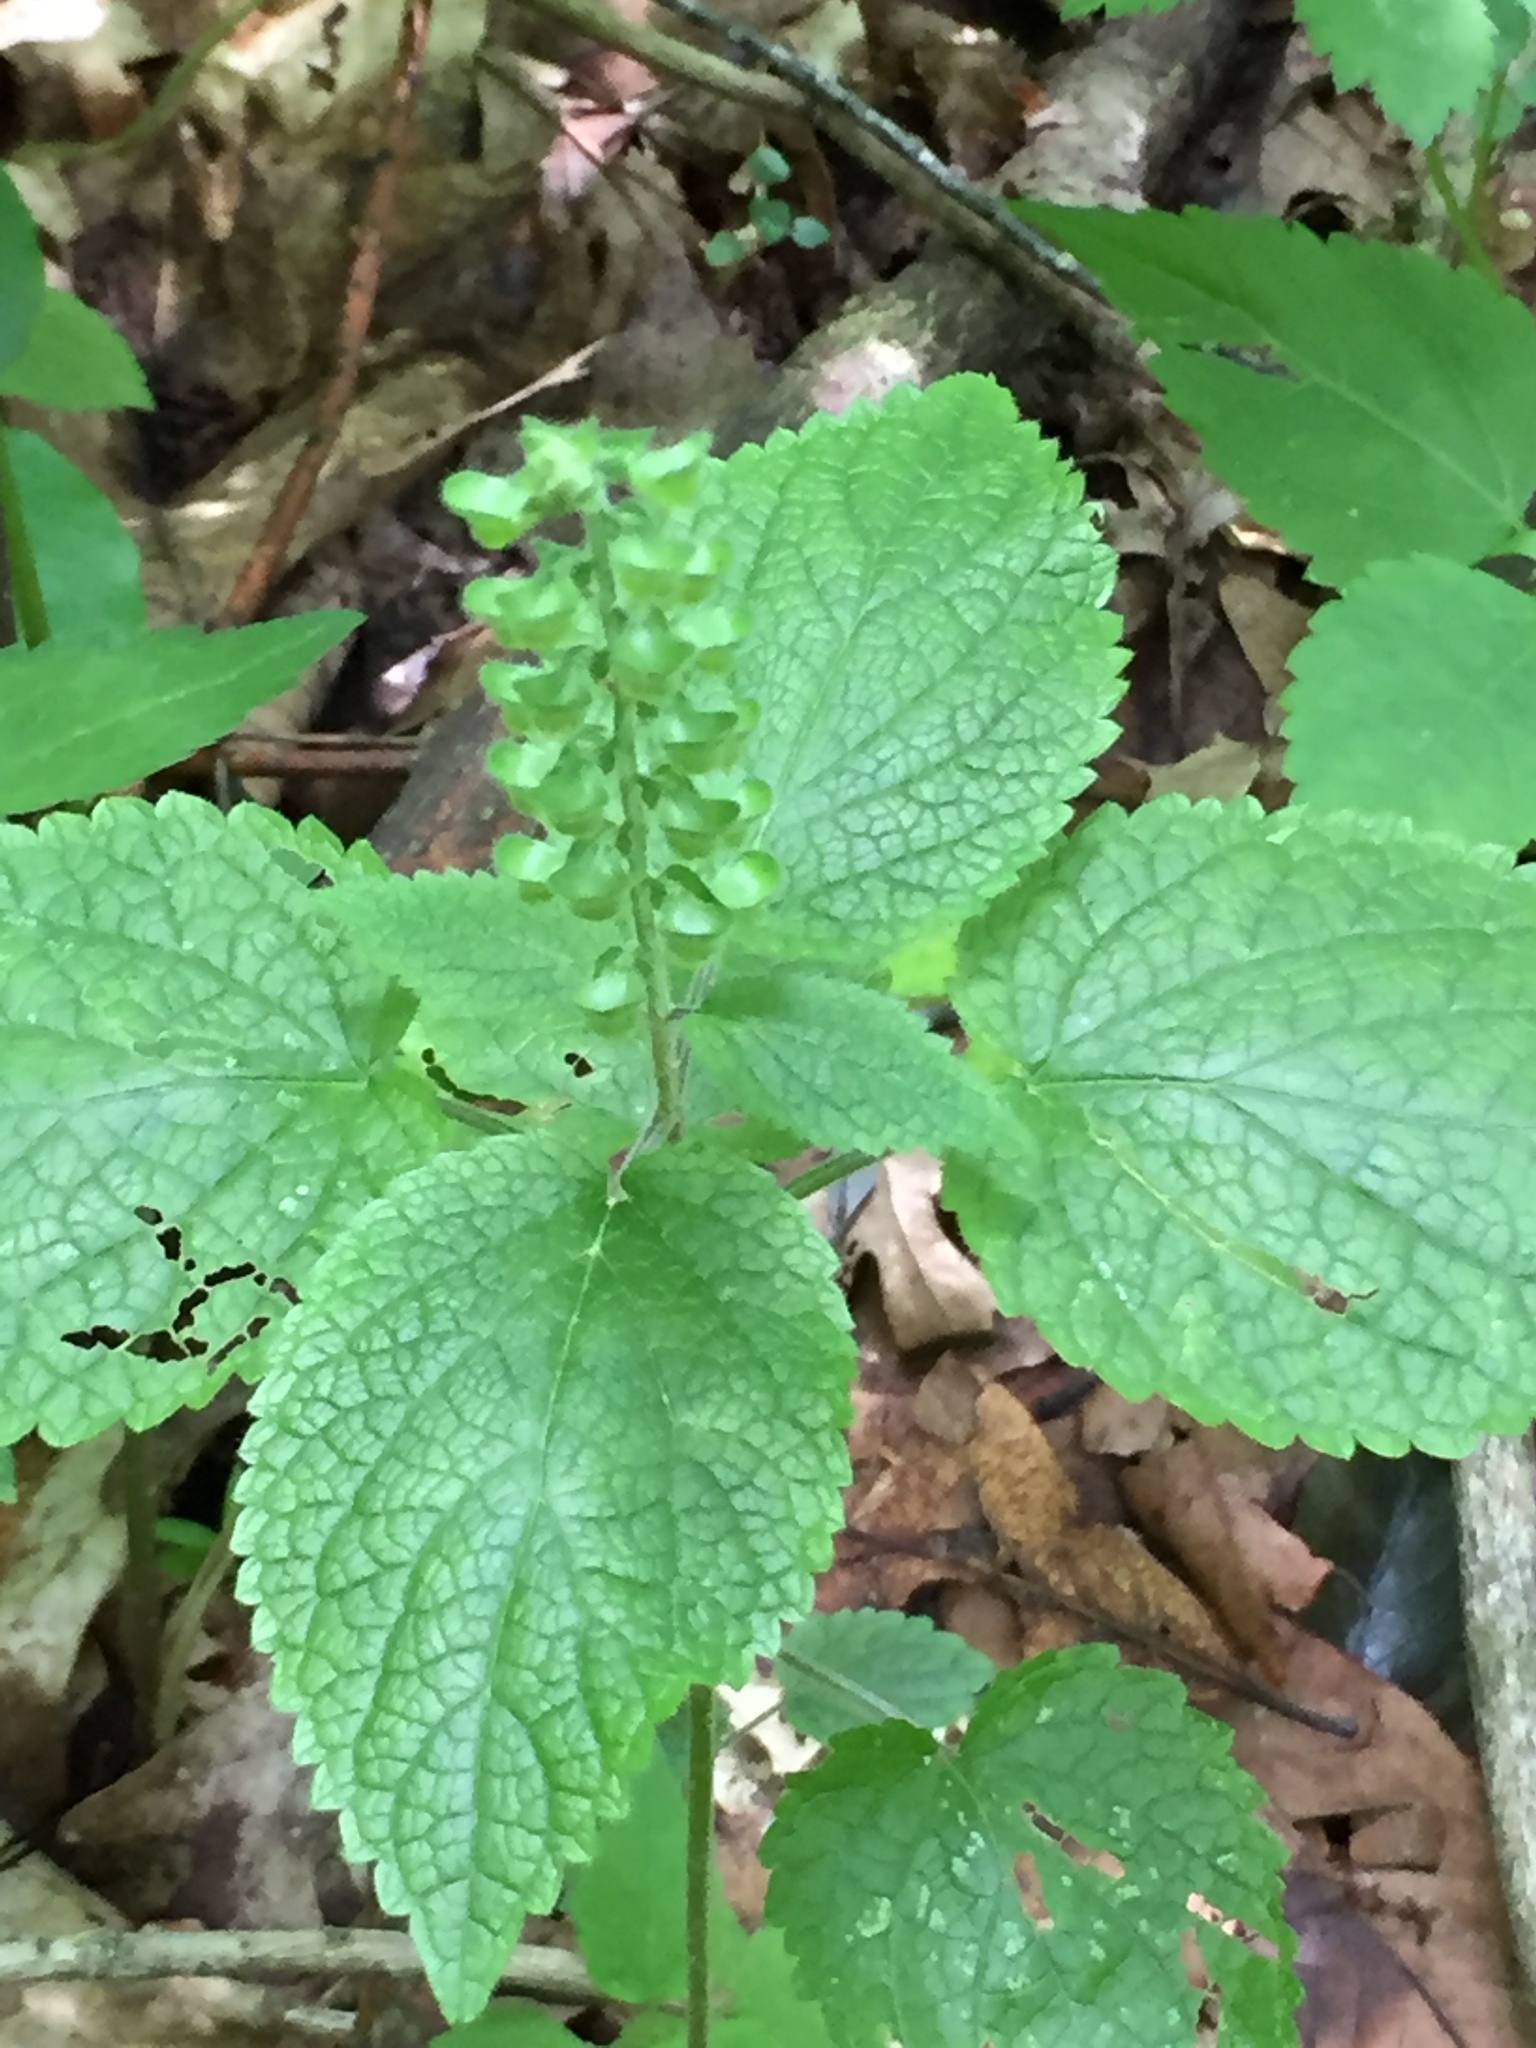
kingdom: Plantae
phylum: Tracheophyta
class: Magnoliopsida
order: Lamiales
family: Lamiaceae
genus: Scutellaria
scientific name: Scutellaria ovata
